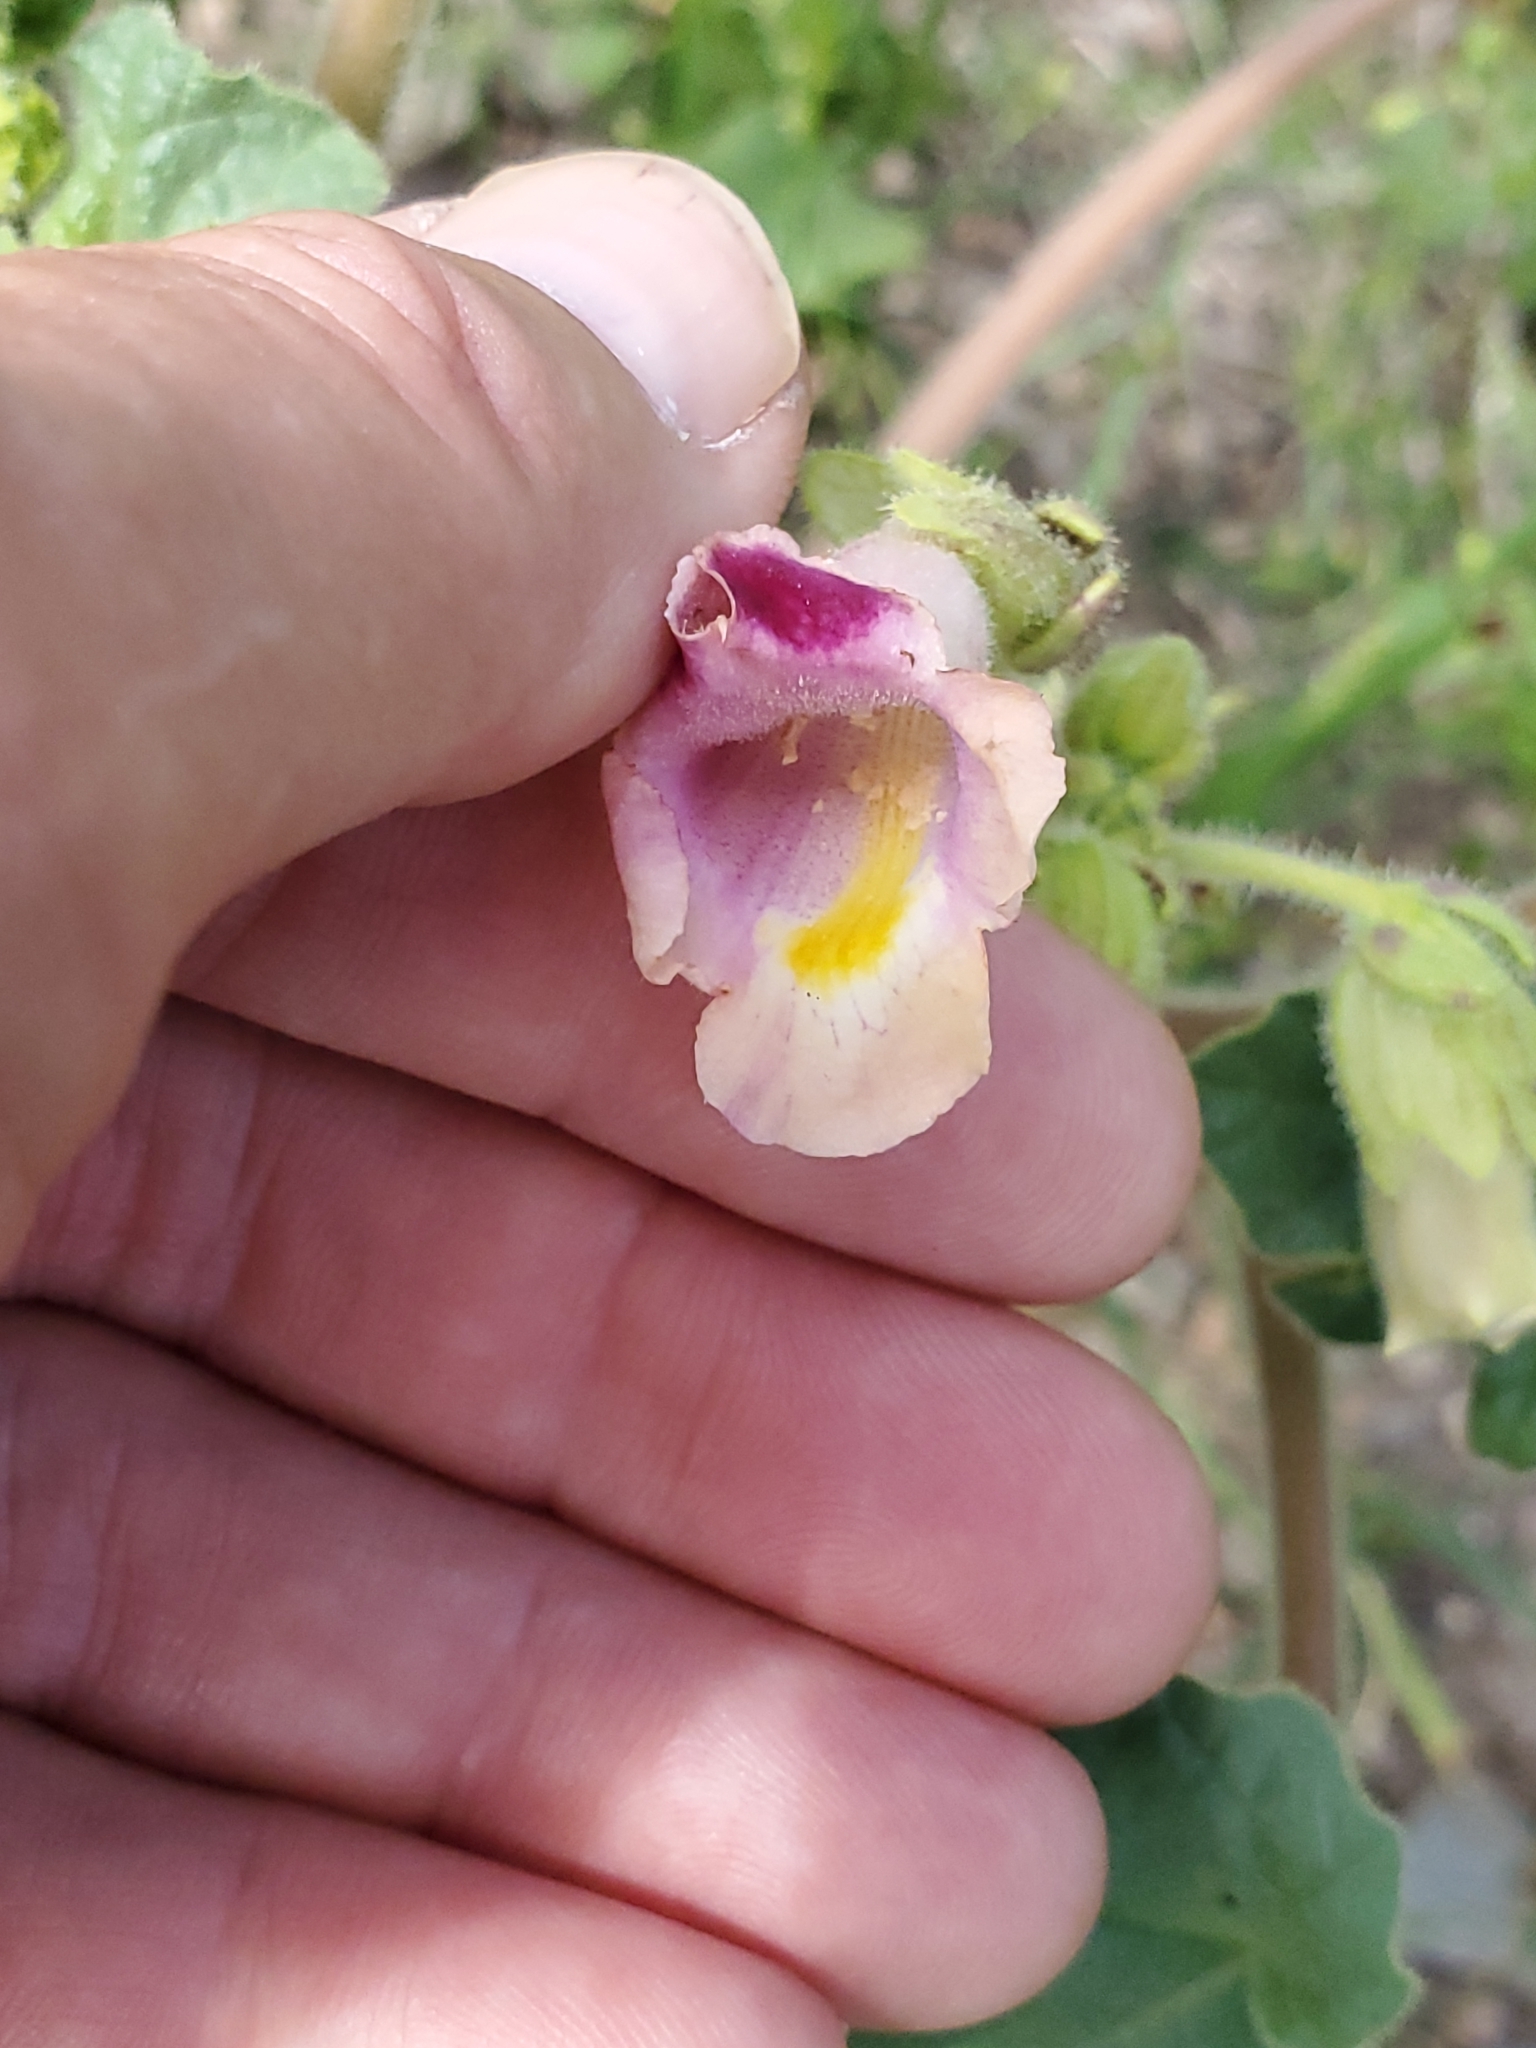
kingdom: Plantae
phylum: Tracheophyta
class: Magnoliopsida
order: Lamiales
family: Martyniaceae
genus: Proboscidea
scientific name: Proboscidea parviflora
